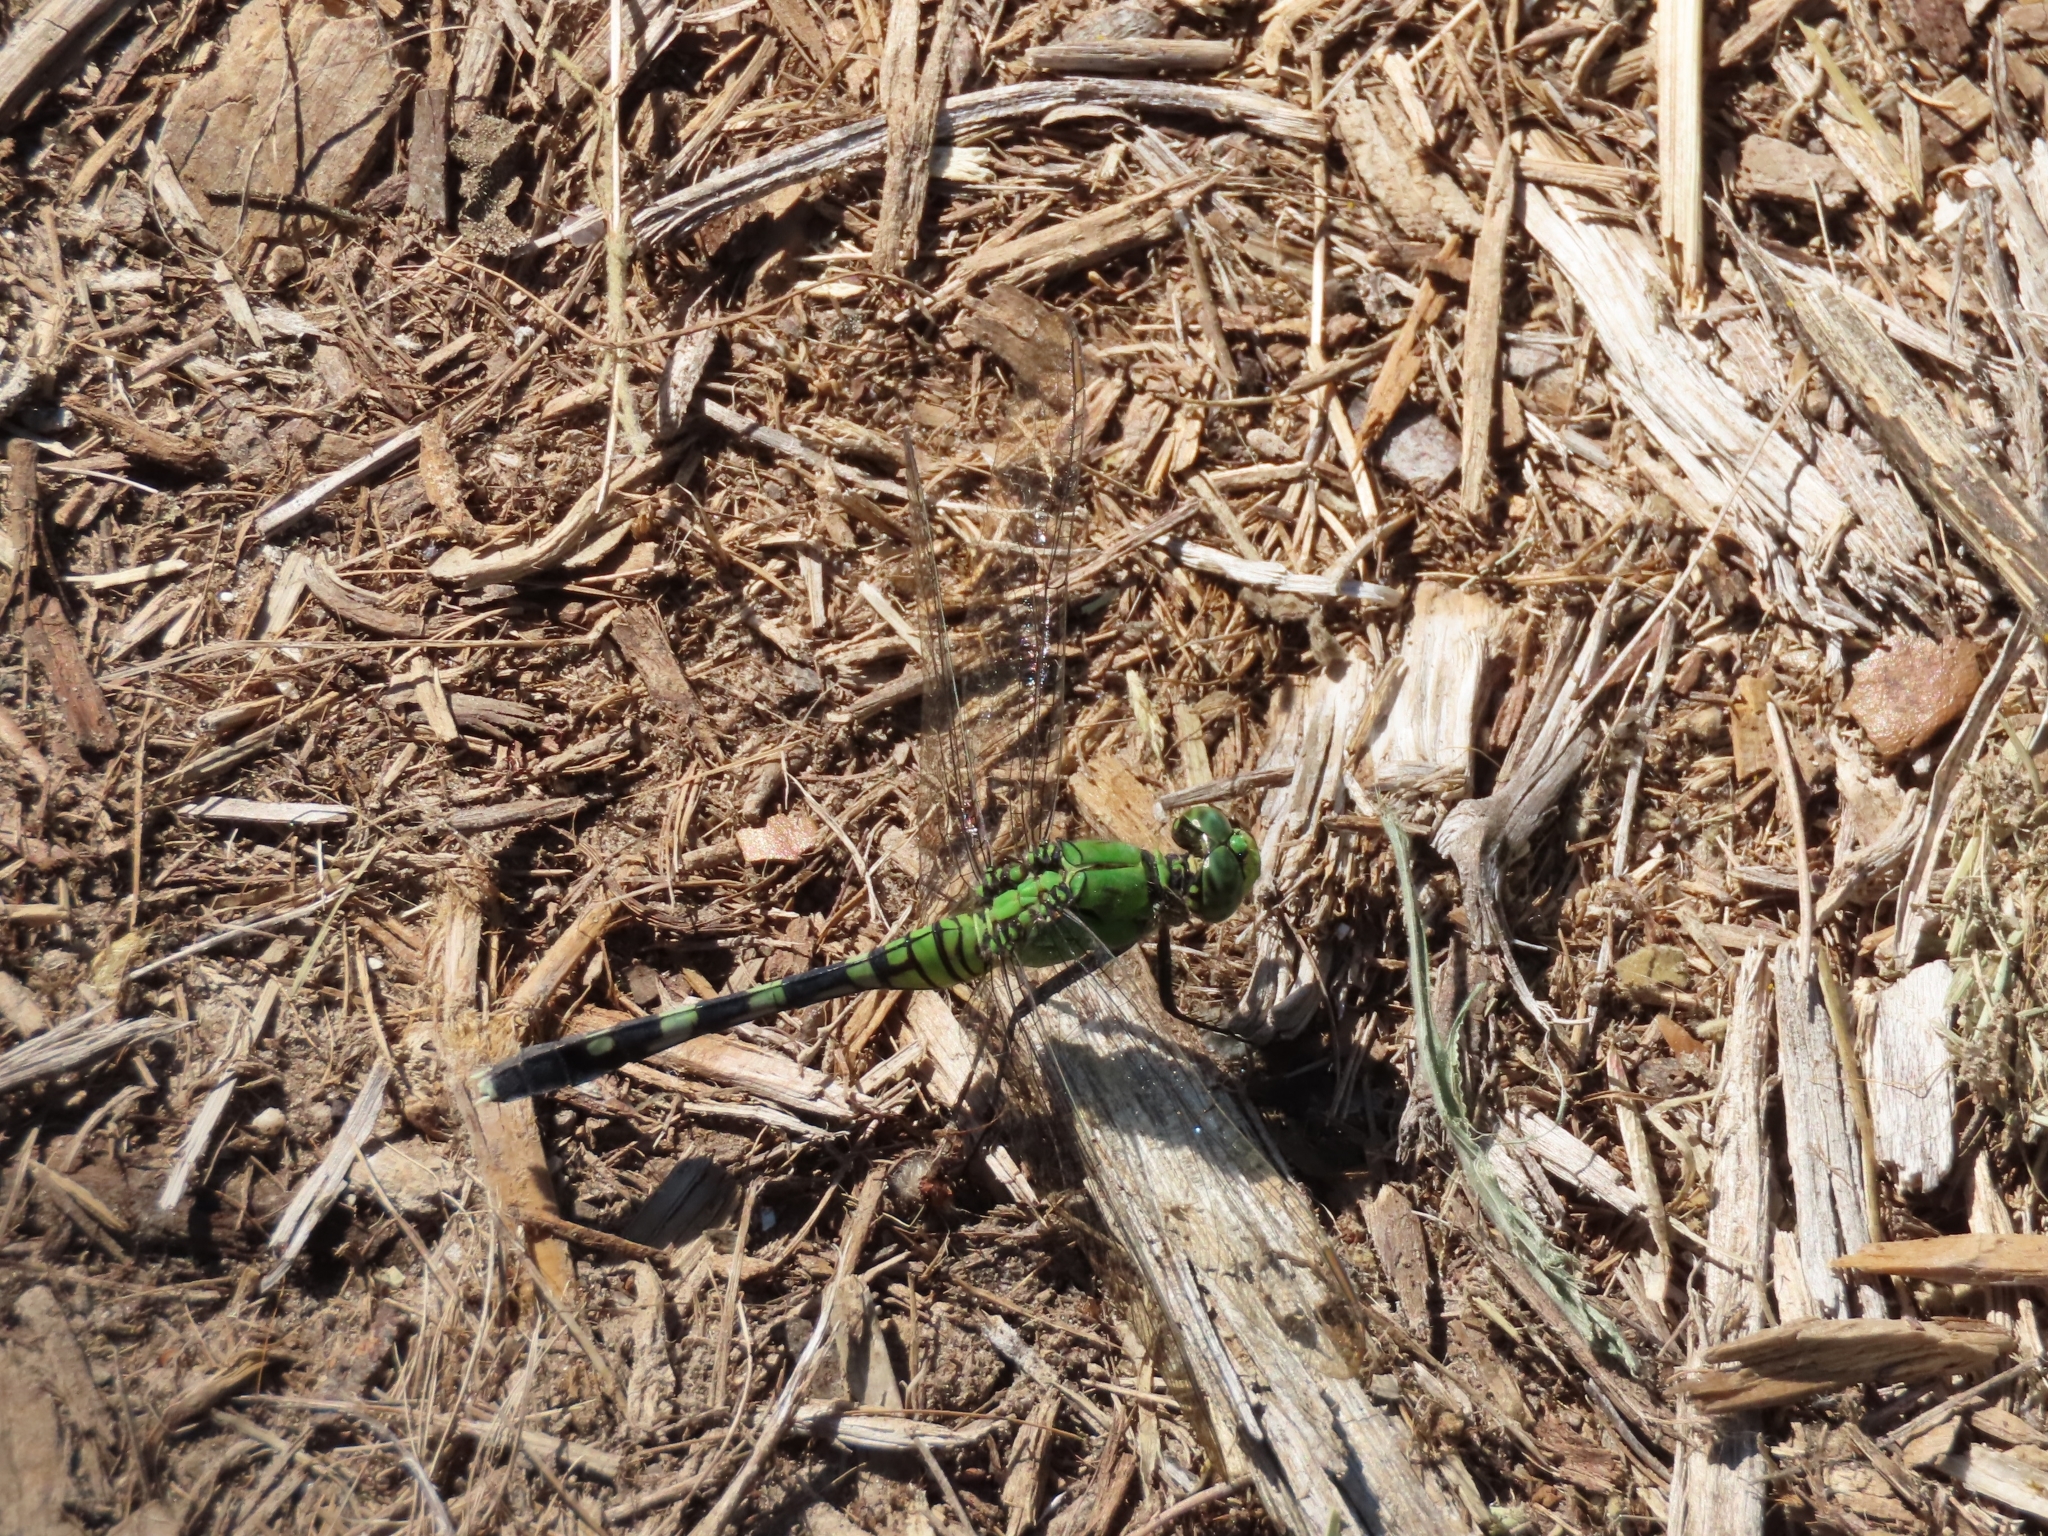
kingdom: Animalia
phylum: Arthropoda
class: Insecta
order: Odonata
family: Libellulidae
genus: Erythemis
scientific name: Erythemis simplicicollis
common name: Eastern pondhawk
